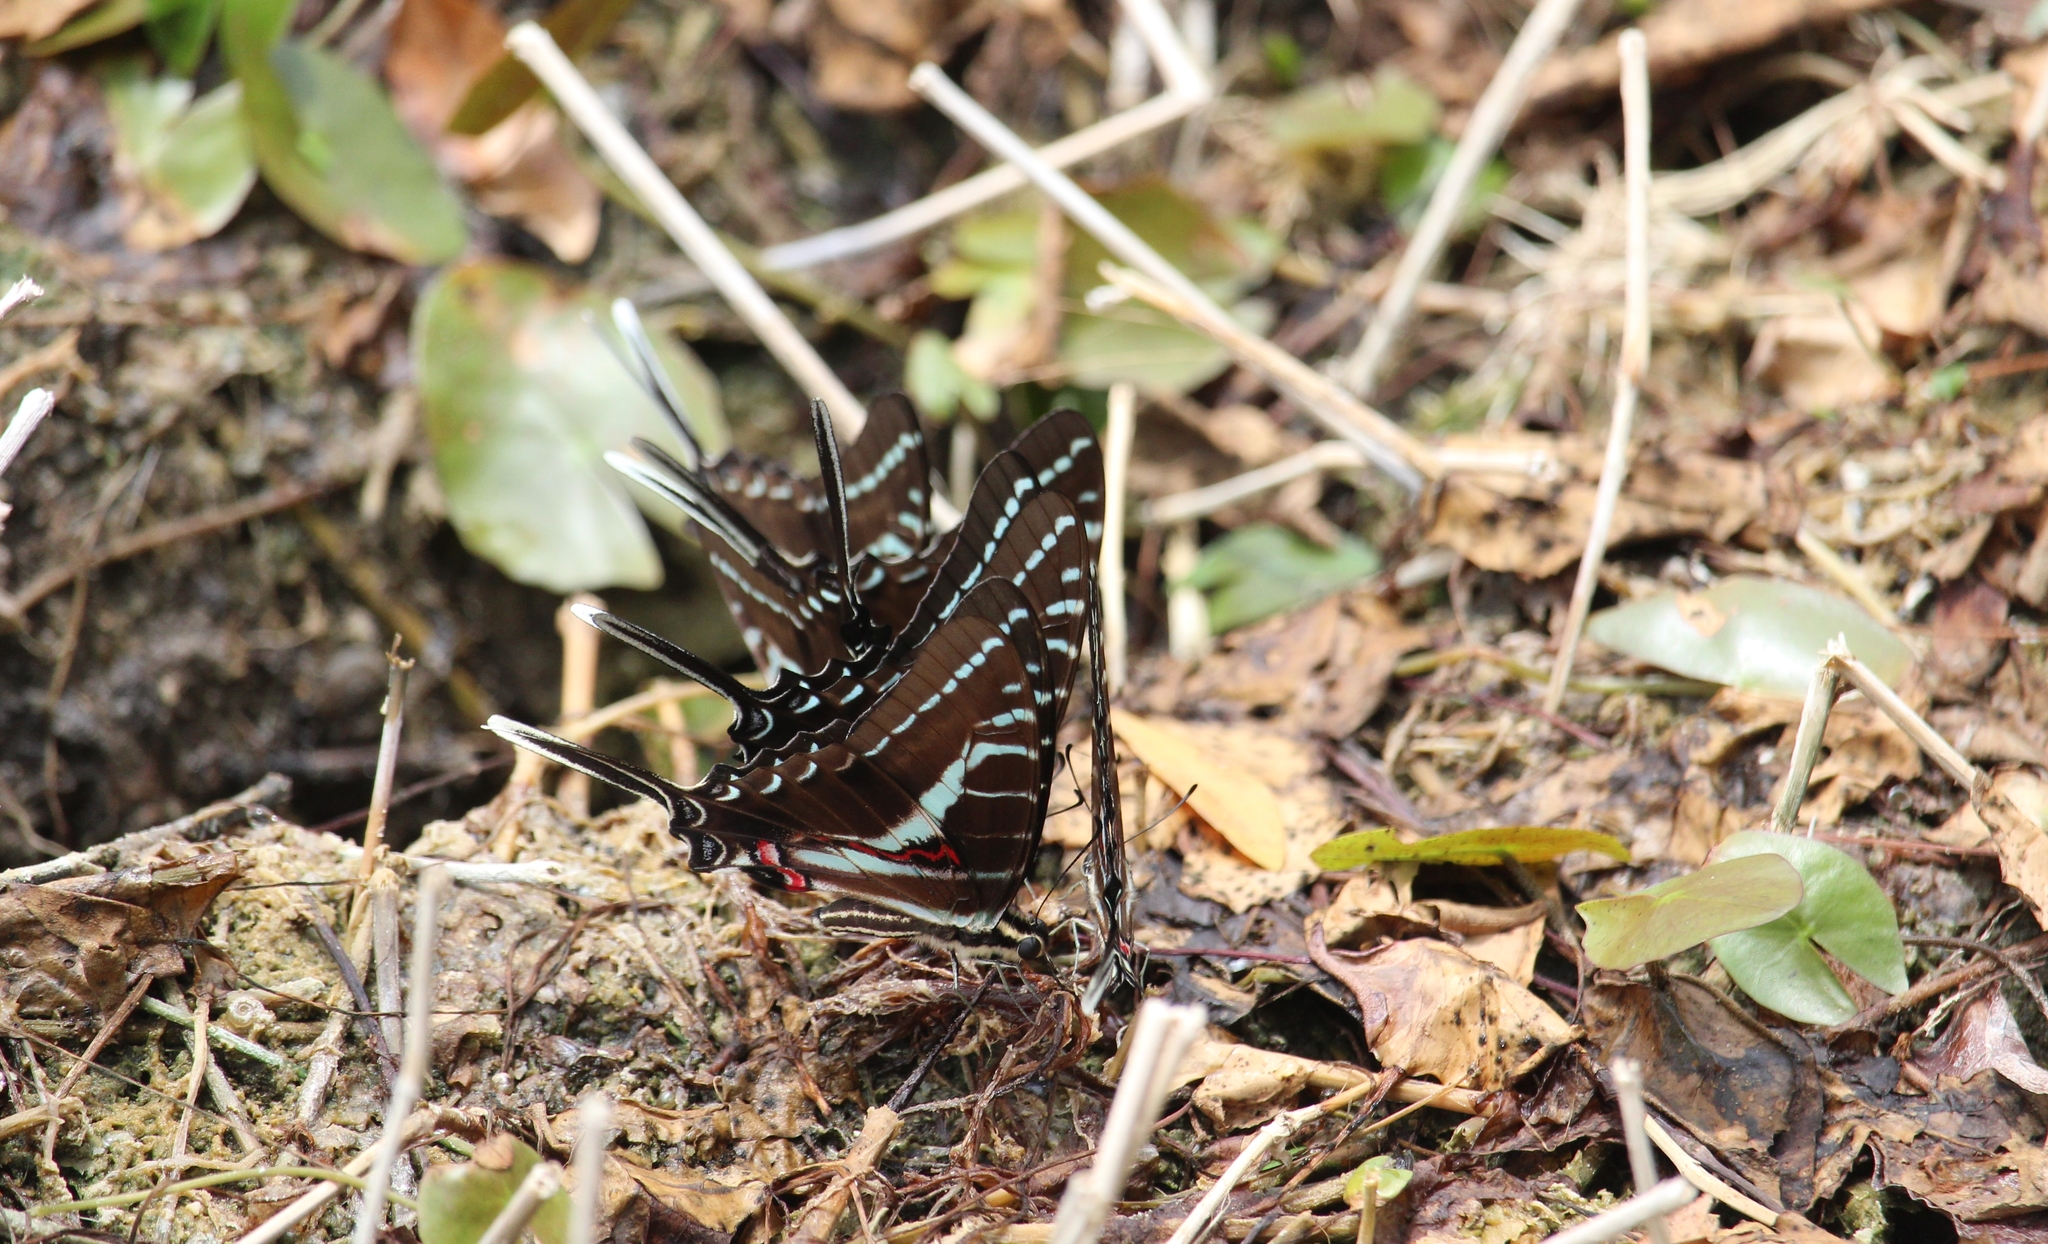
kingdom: Animalia
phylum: Arthropoda
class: Insecta
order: Lepidoptera
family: Papilionidae
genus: Protographium
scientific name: Protographium philolaus
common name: Dark zebra swallowtail
